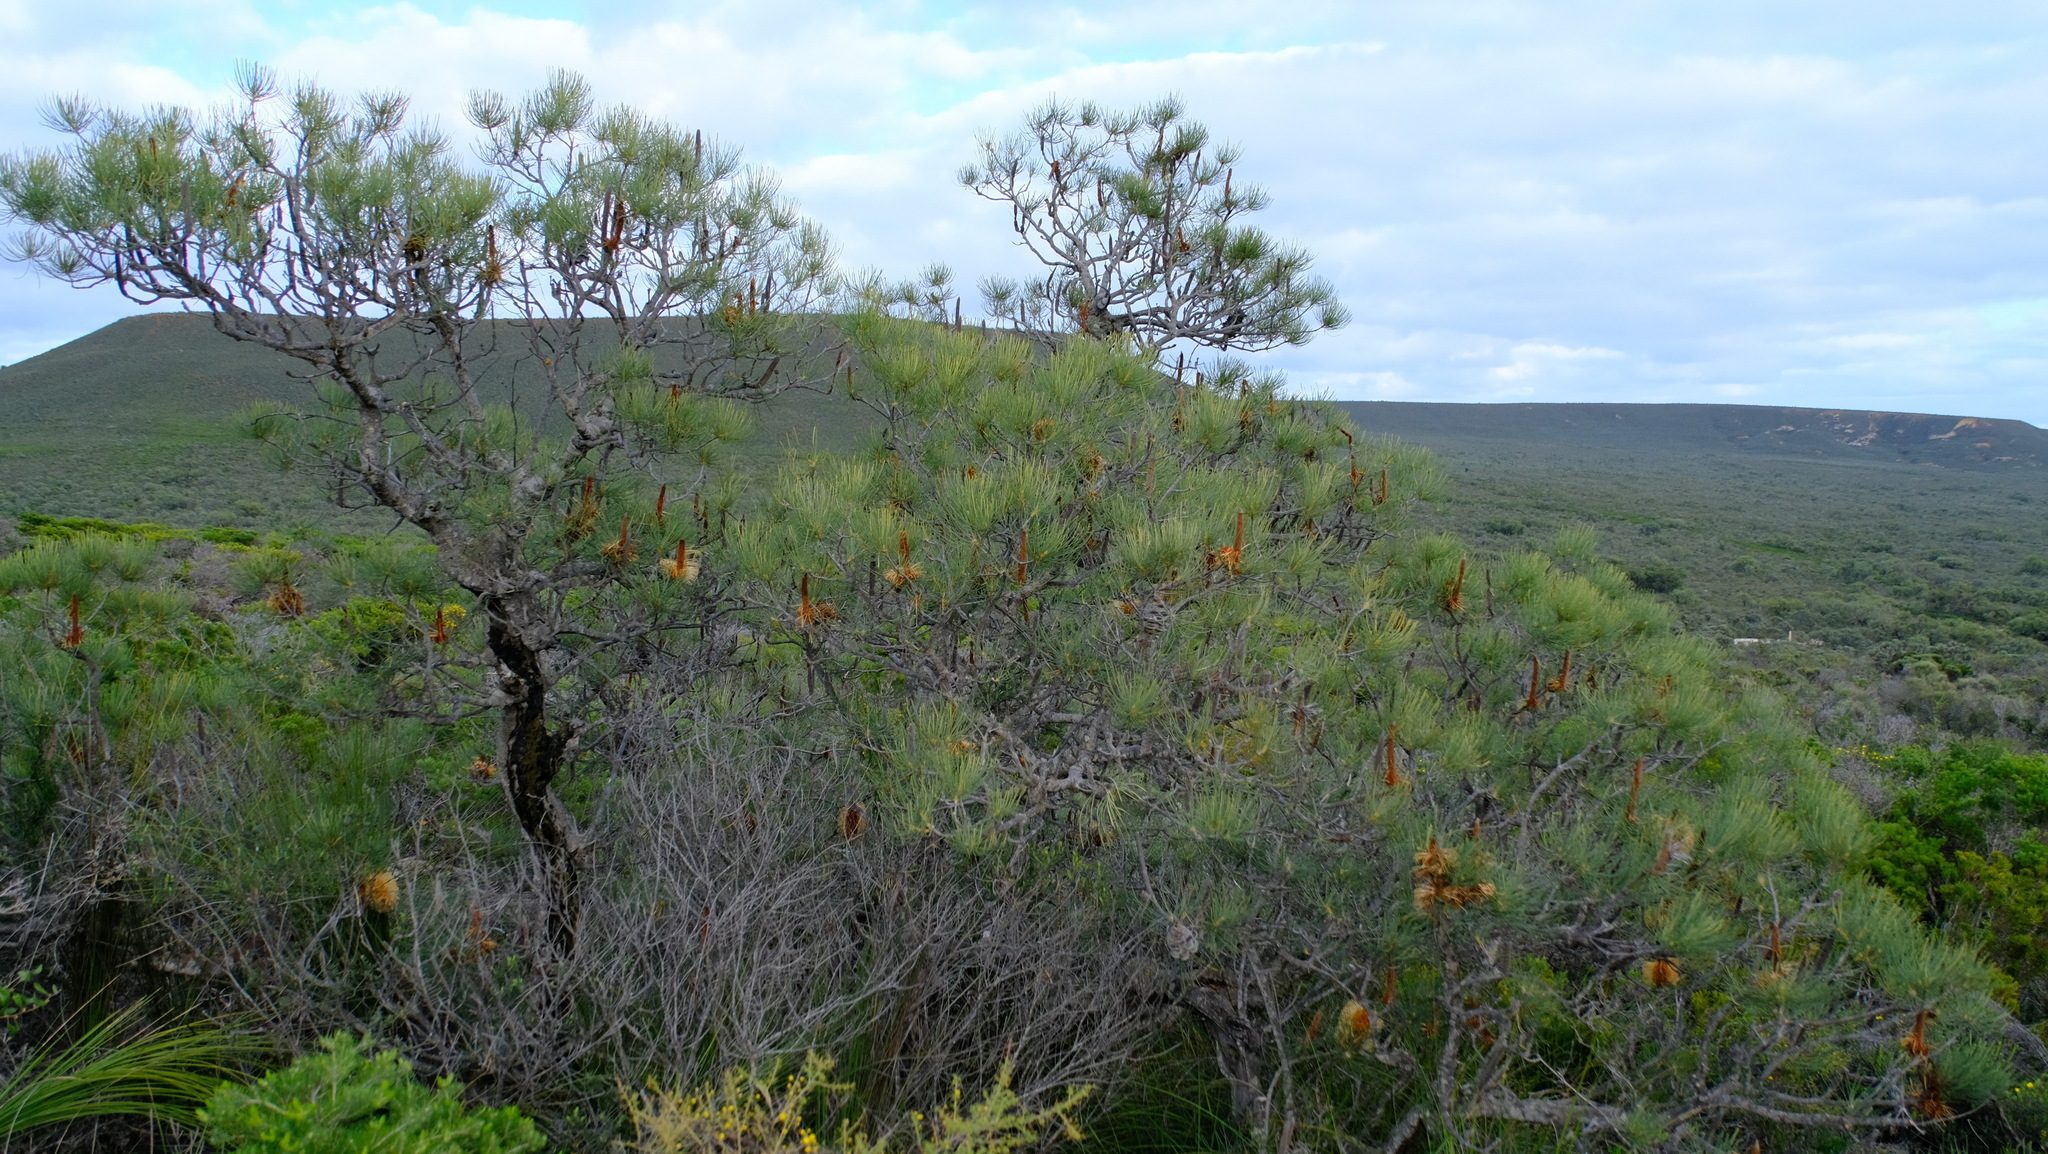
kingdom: Plantae
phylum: Tracheophyta
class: Magnoliopsida
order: Proteales
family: Proteaceae
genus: Banksia
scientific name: Banksia tricuspis
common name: Lesueur banksia
